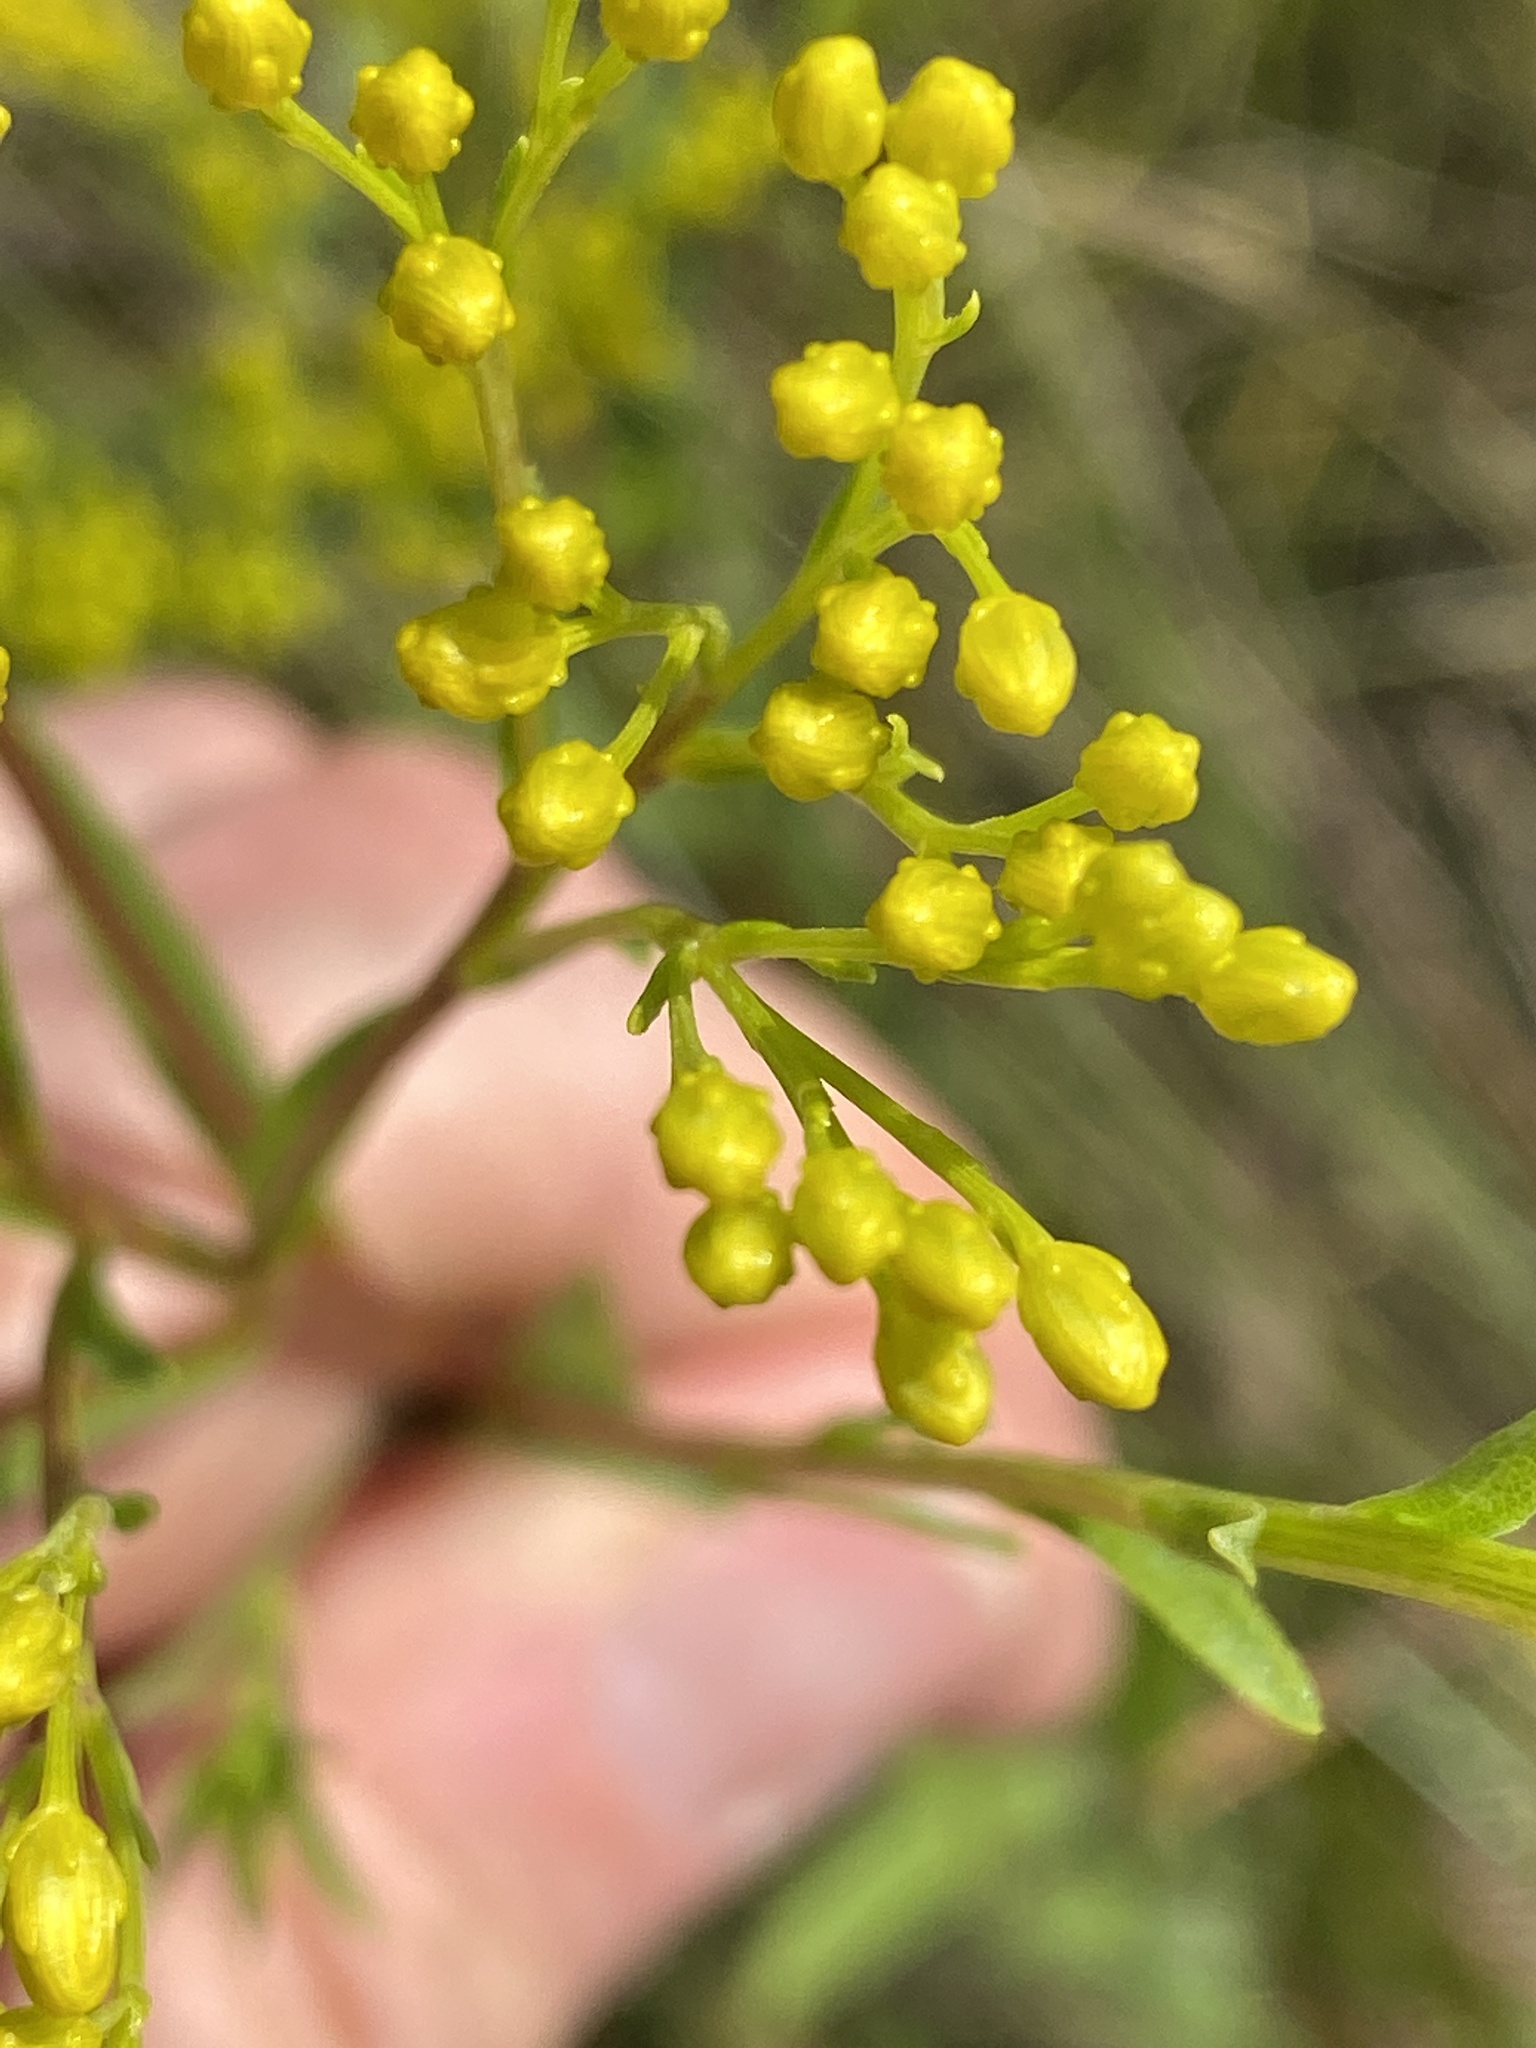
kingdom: Plantae
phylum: Tracheophyta
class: Magnoliopsida
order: Asterales
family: Asteraceae
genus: Solidago
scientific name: Solidago ohioensis
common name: Ohio goldenrod
